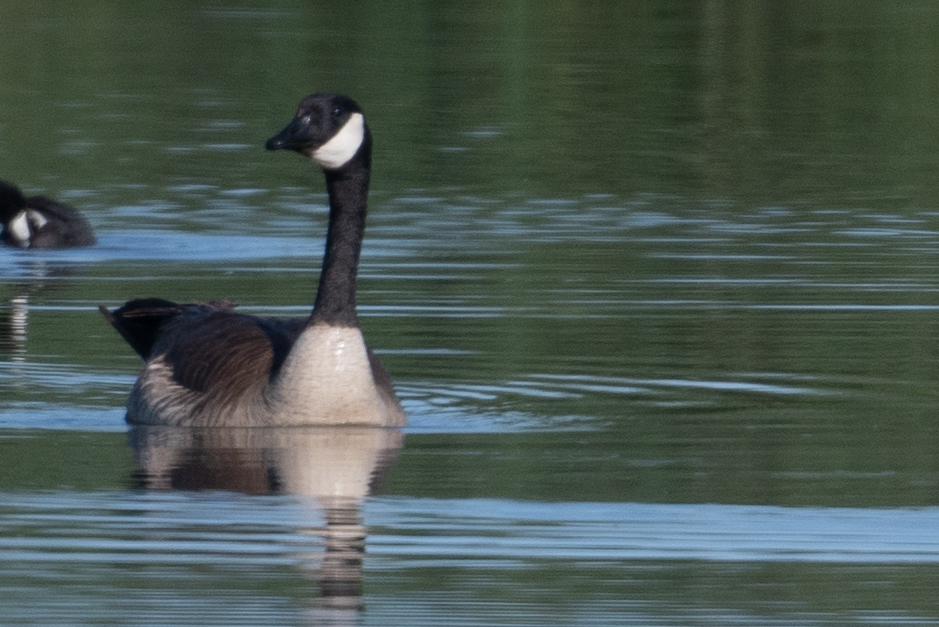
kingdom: Animalia
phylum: Chordata
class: Aves
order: Anseriformes
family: Anatidae
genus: Branta
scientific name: Branta canadensis
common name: Canada goose
